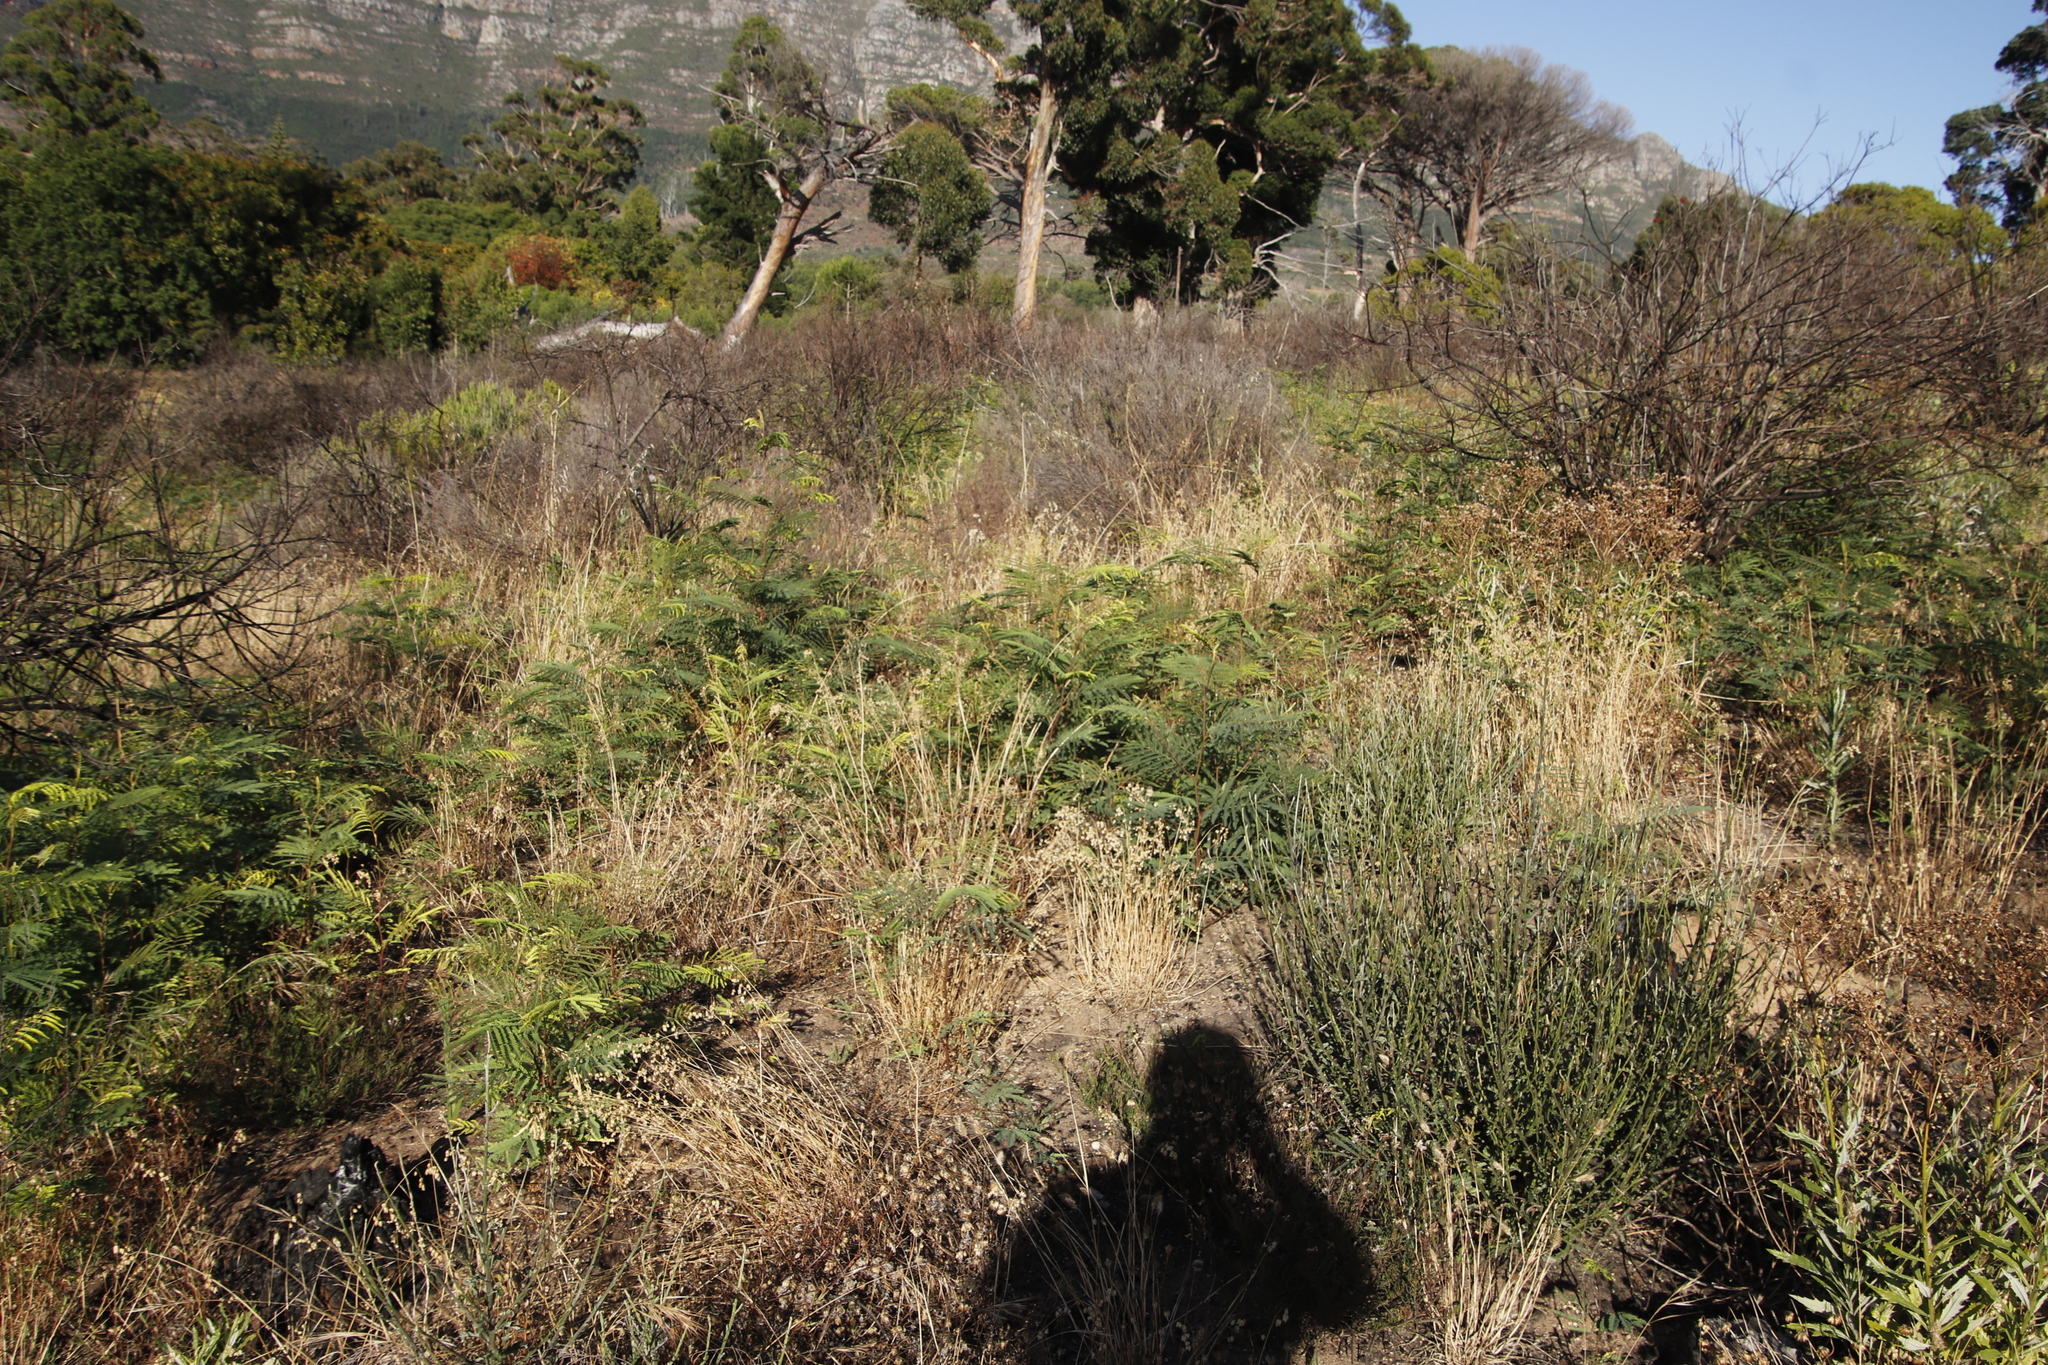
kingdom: Plantae
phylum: Tracheophyta
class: Magnoliopsida
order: Fabales
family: Fabaceae
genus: Paraserianthes
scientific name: Paraserianthes lophantha
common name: Plume albizia
